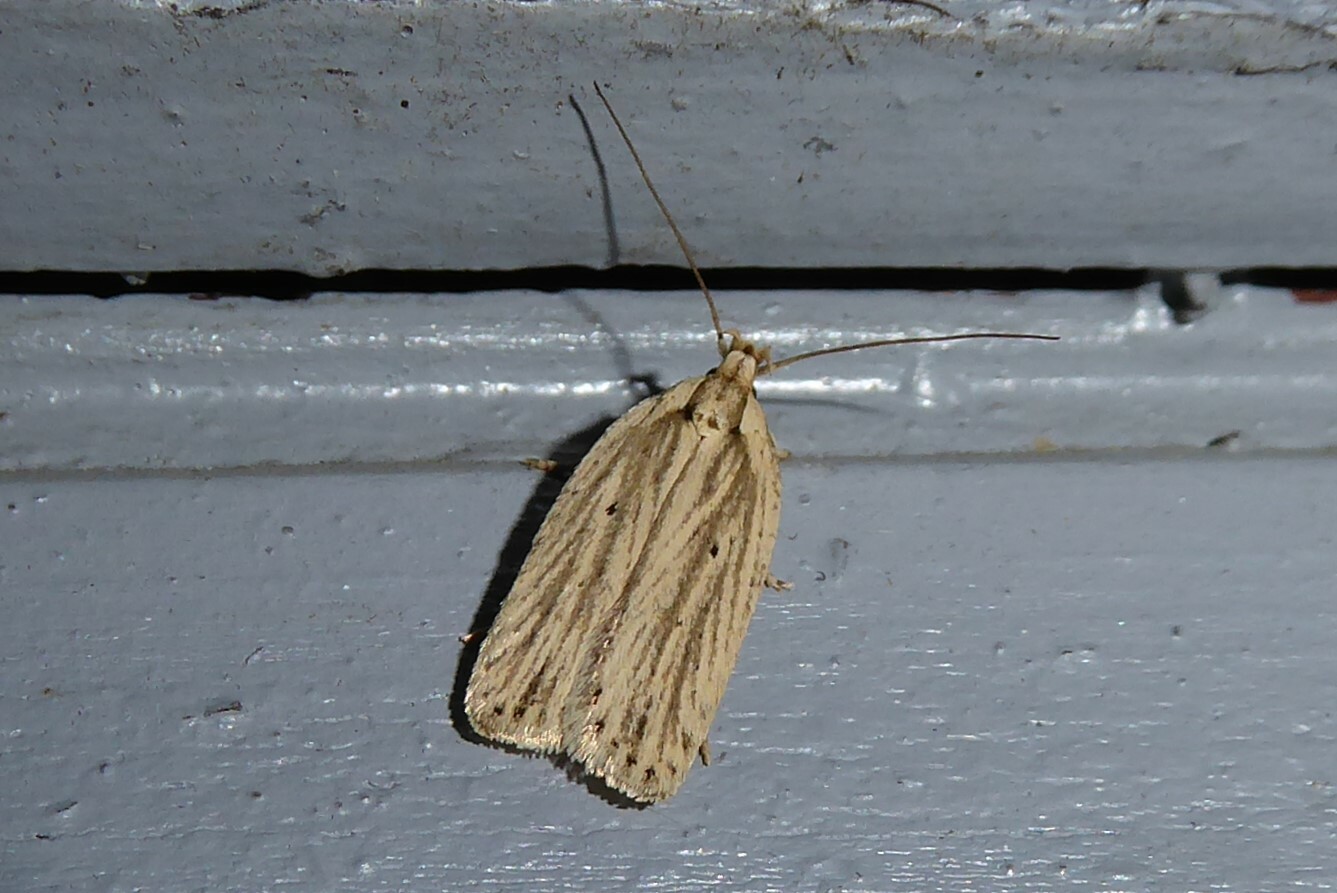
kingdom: Animalia
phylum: Arthropoda
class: Insecta
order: Lepidoptera
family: Depressariidae
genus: Agonopterix
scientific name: Agonopterix
